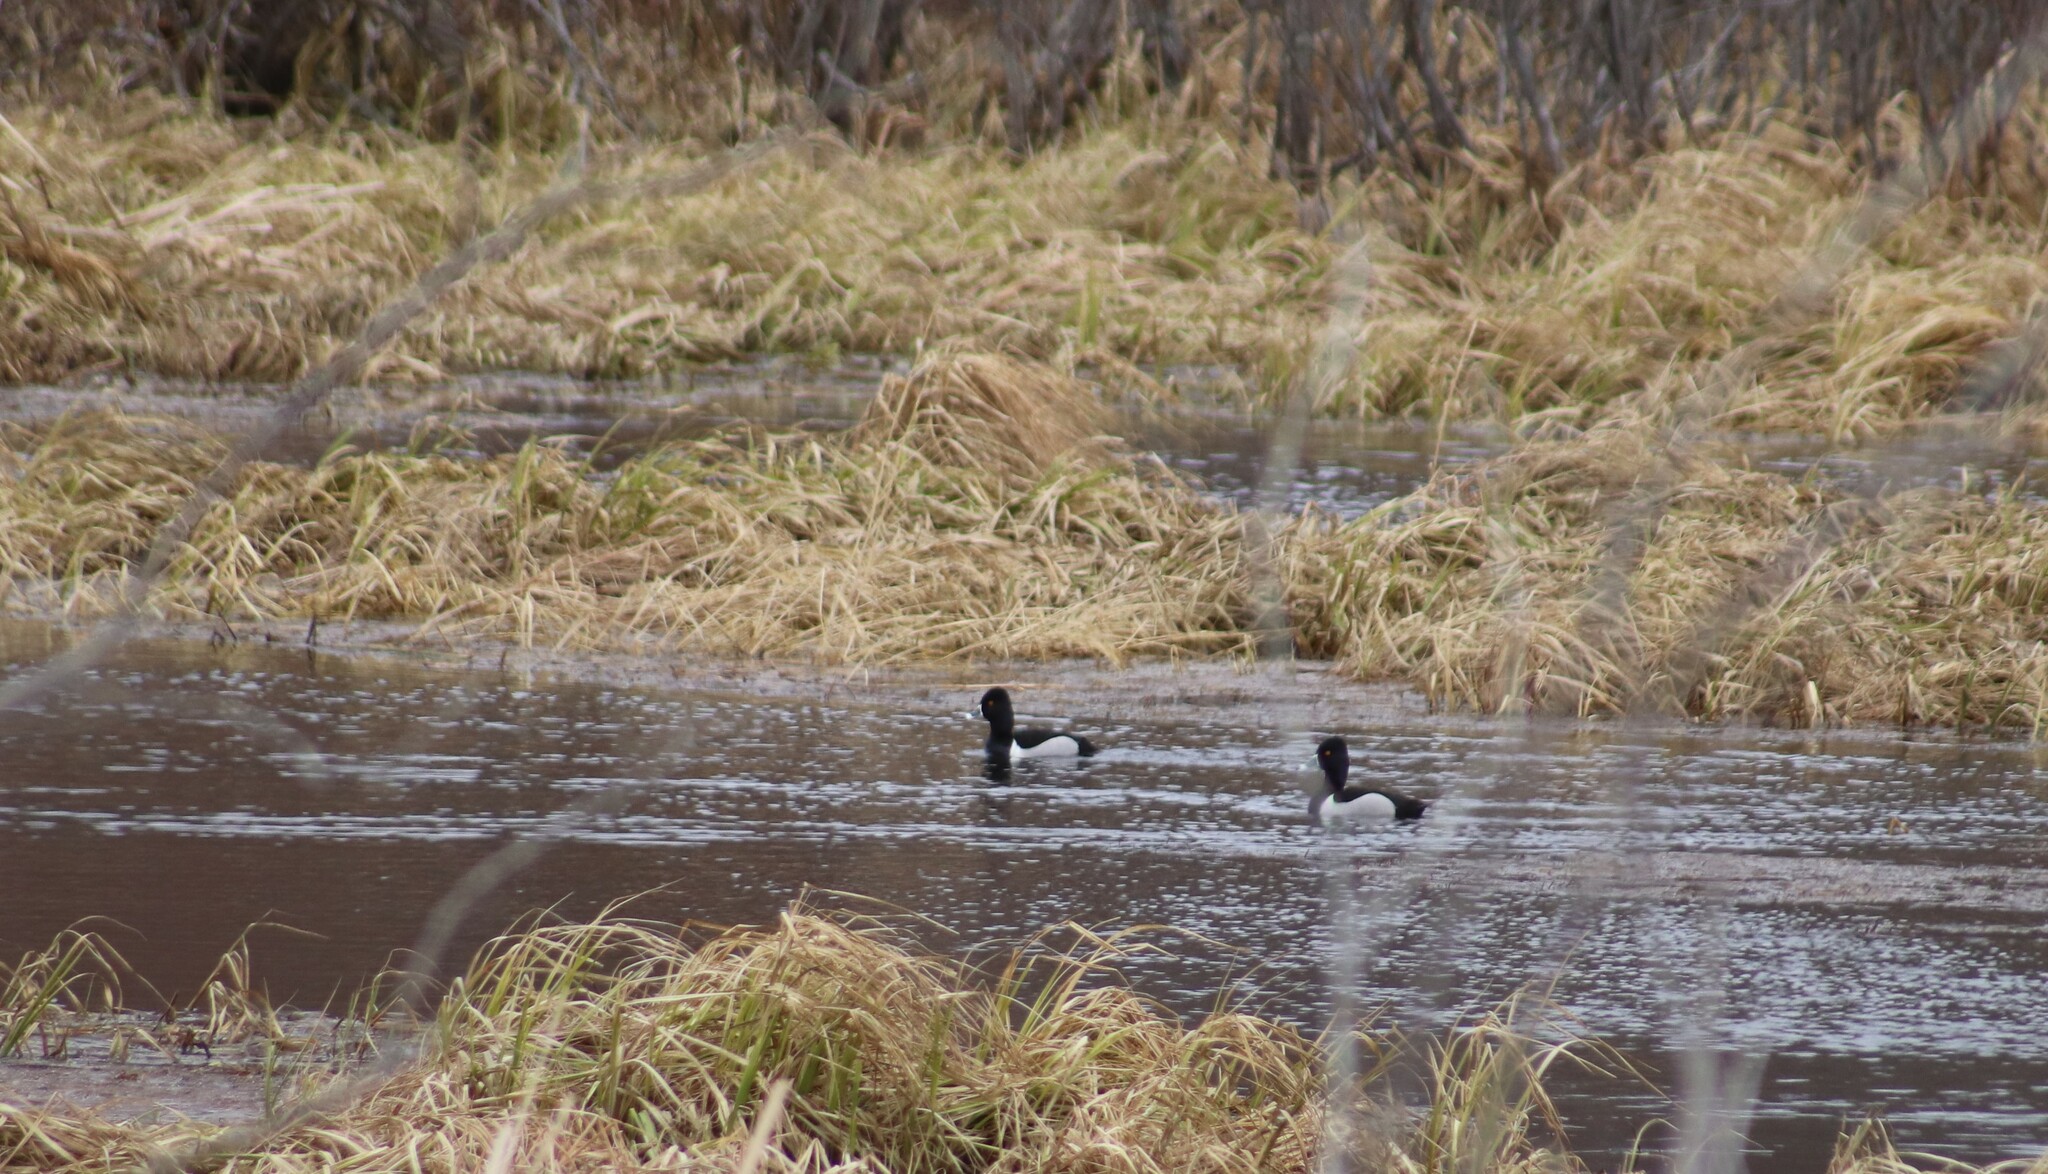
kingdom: Animalia
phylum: Chordata
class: Aves
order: Anseriformes
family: Anatidae
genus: Aythya
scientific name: Aythya collaris
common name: Ring-necked duck
